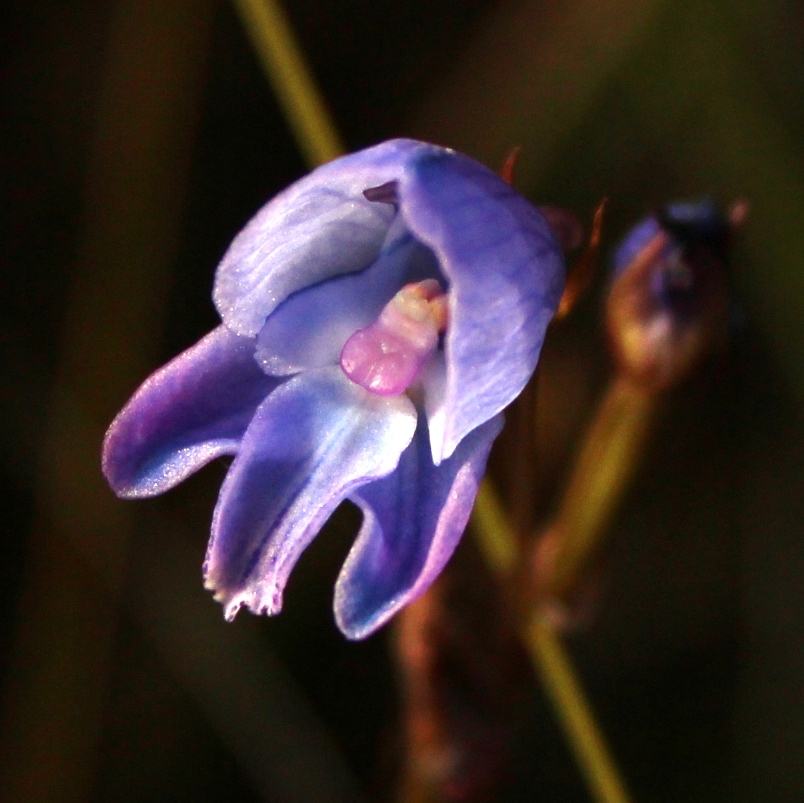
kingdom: Plantae
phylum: Tracheophyta
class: Liliopsida
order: Asparagales
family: Orchidaceae
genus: Disa
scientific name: Disa hians
